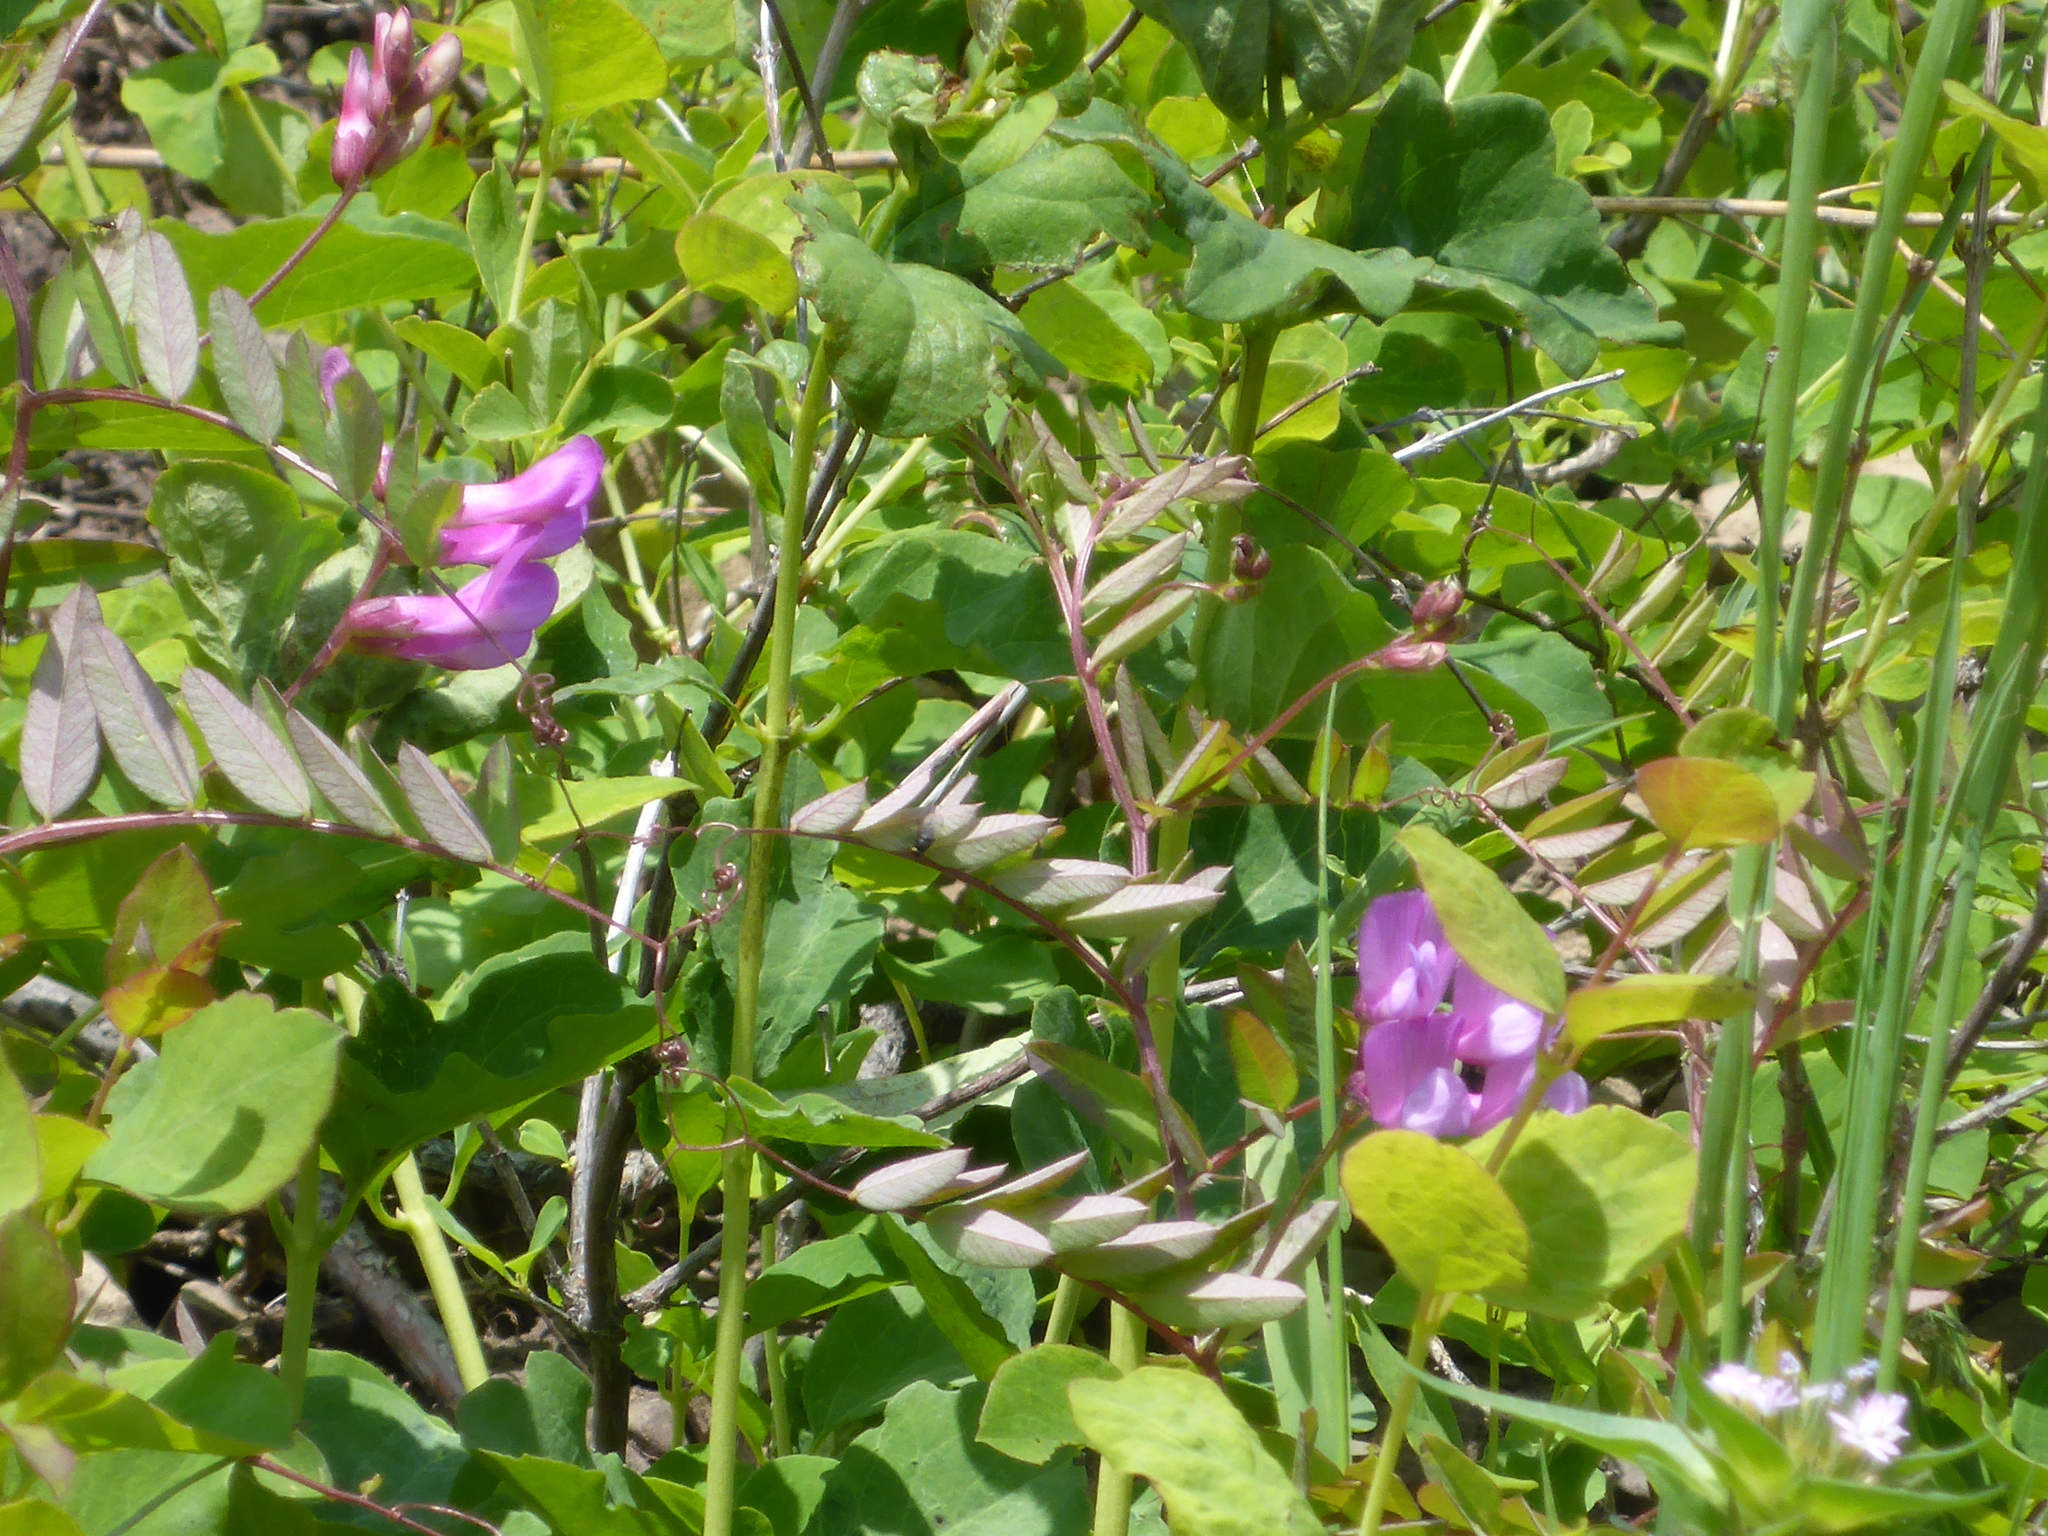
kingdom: Plantae
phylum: Tracheophyta
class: Magnoliopsida
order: Fabales
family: Fabaceae
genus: Vicia
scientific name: Vicia americana
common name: American vetch
